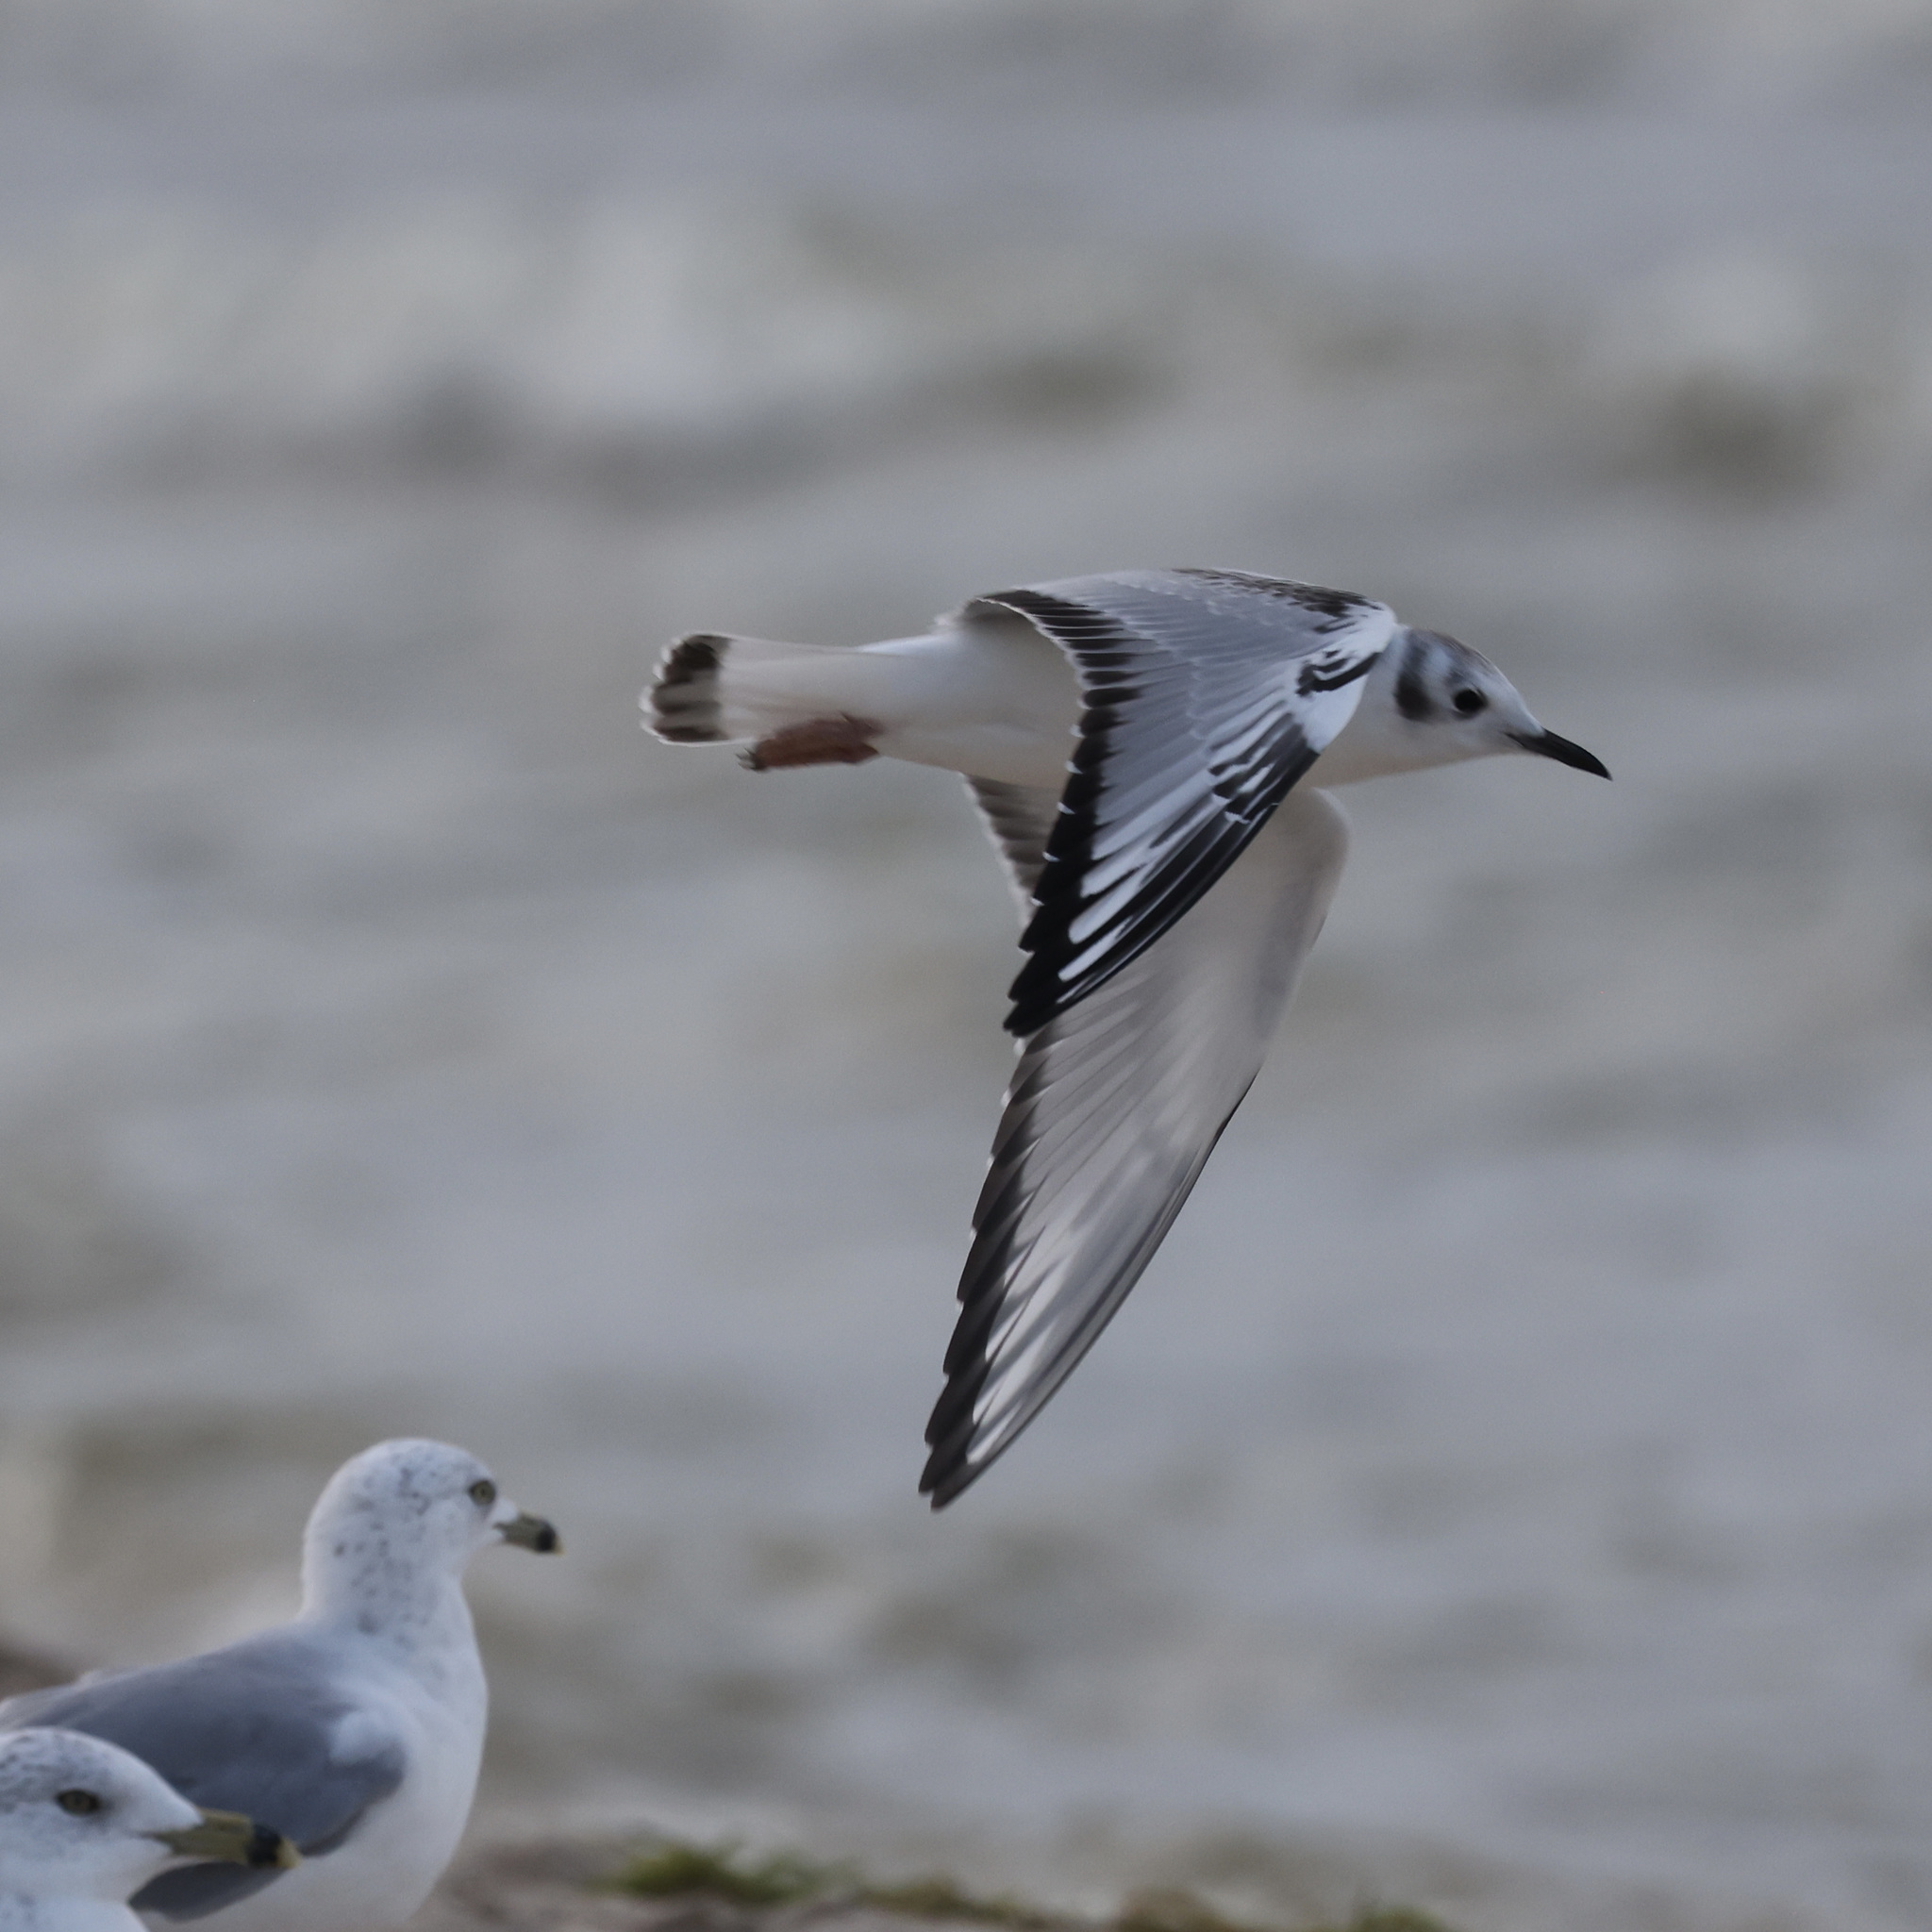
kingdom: Animalia
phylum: Chordata
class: Aves
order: Charadriiformes
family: Laridae
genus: Chroicocephalus
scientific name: Chroicocephalus philadelphia
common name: Bonaparte's gull
